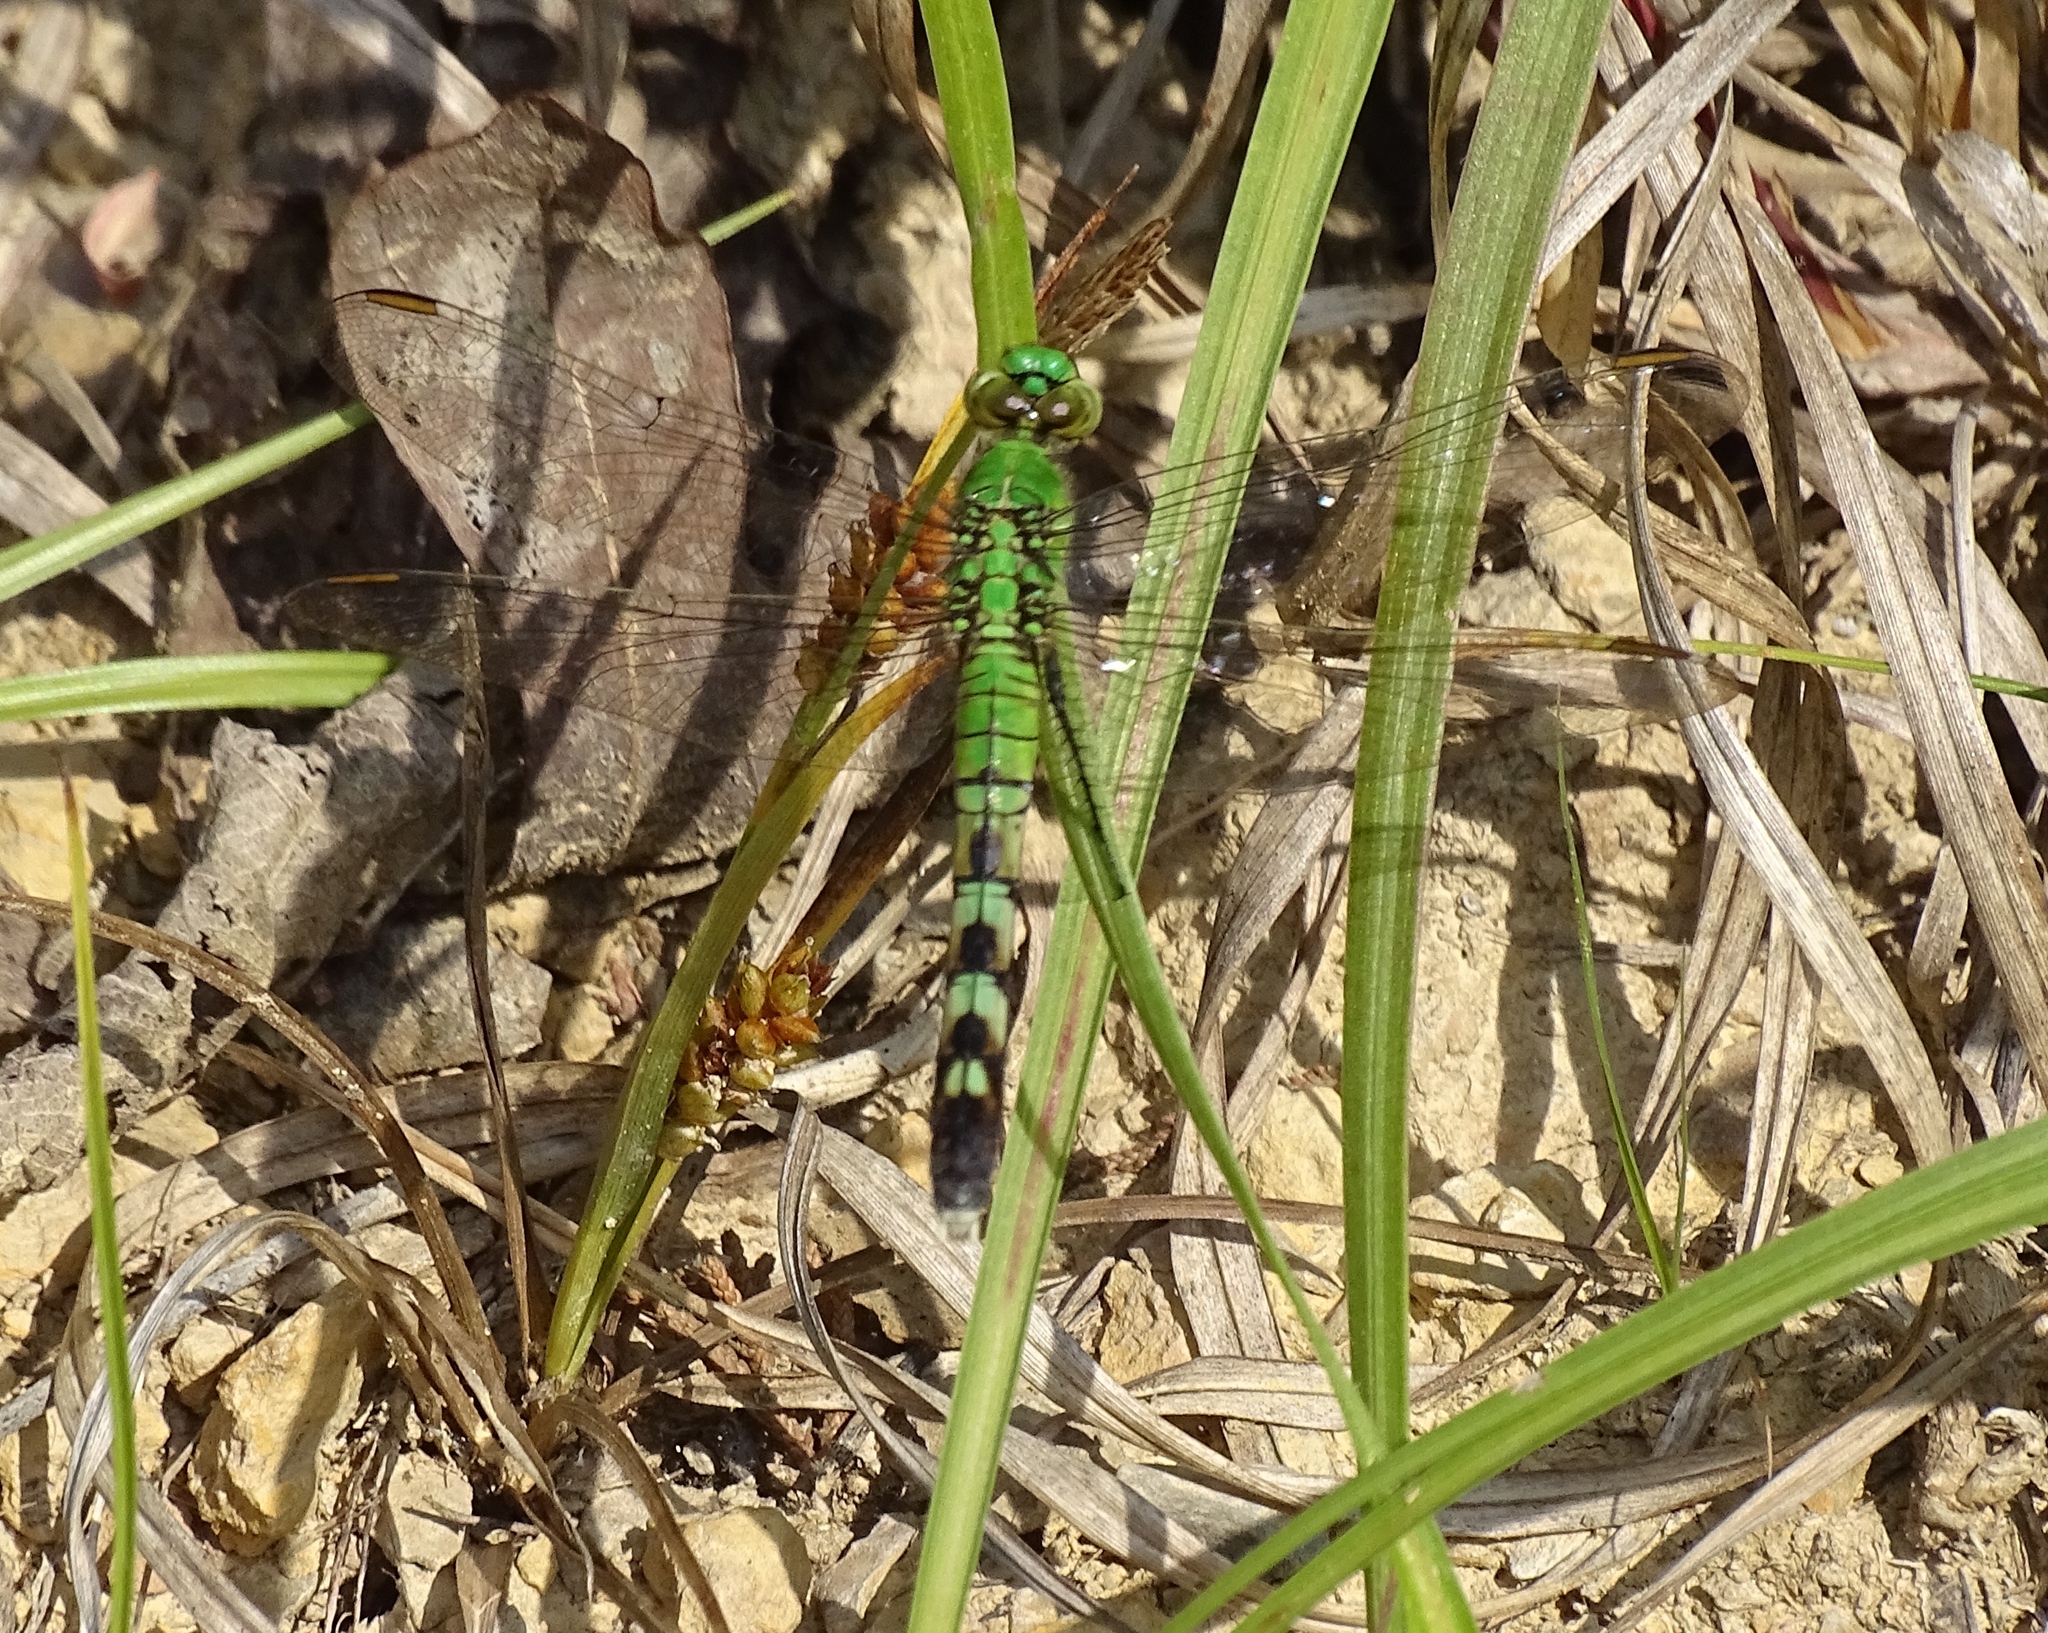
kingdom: Animalia
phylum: Arthropoda
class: Insecta
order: Odonata
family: Libellulidae
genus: Erythemis
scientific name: Erythemis simplicicollis
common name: Eastern pondhawk
